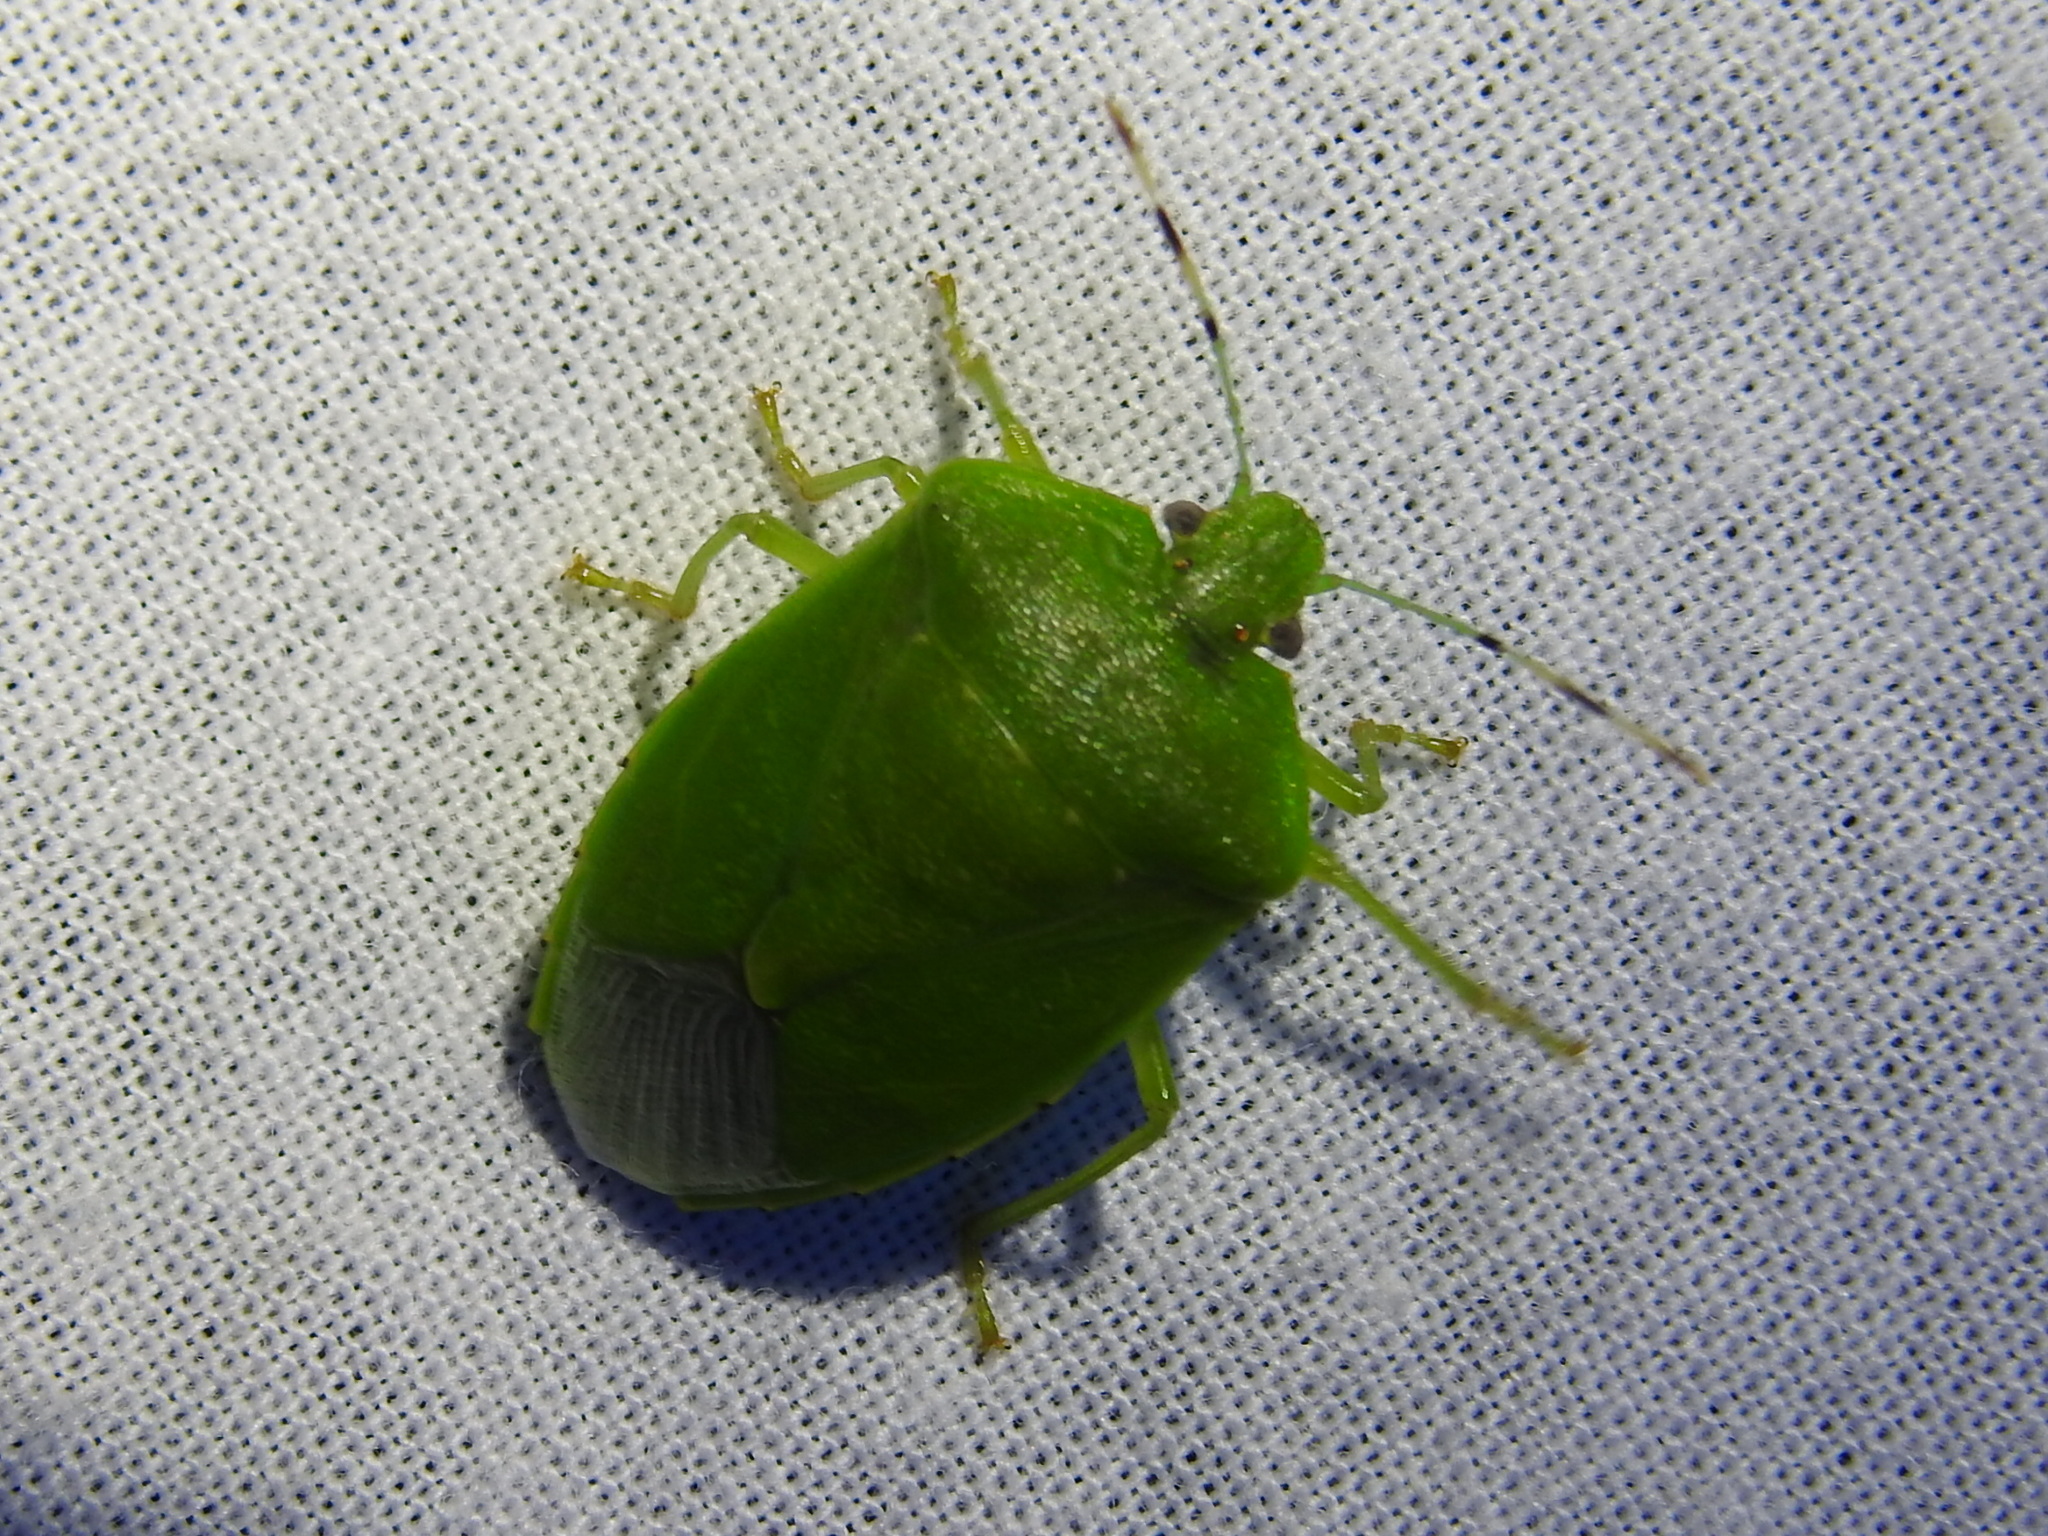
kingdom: Animalia
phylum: Arthropoda
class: Insecta
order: Hemiptera
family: Pentatomidae
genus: Chinavia
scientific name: Chinavia hilaris
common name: Green stink bug
